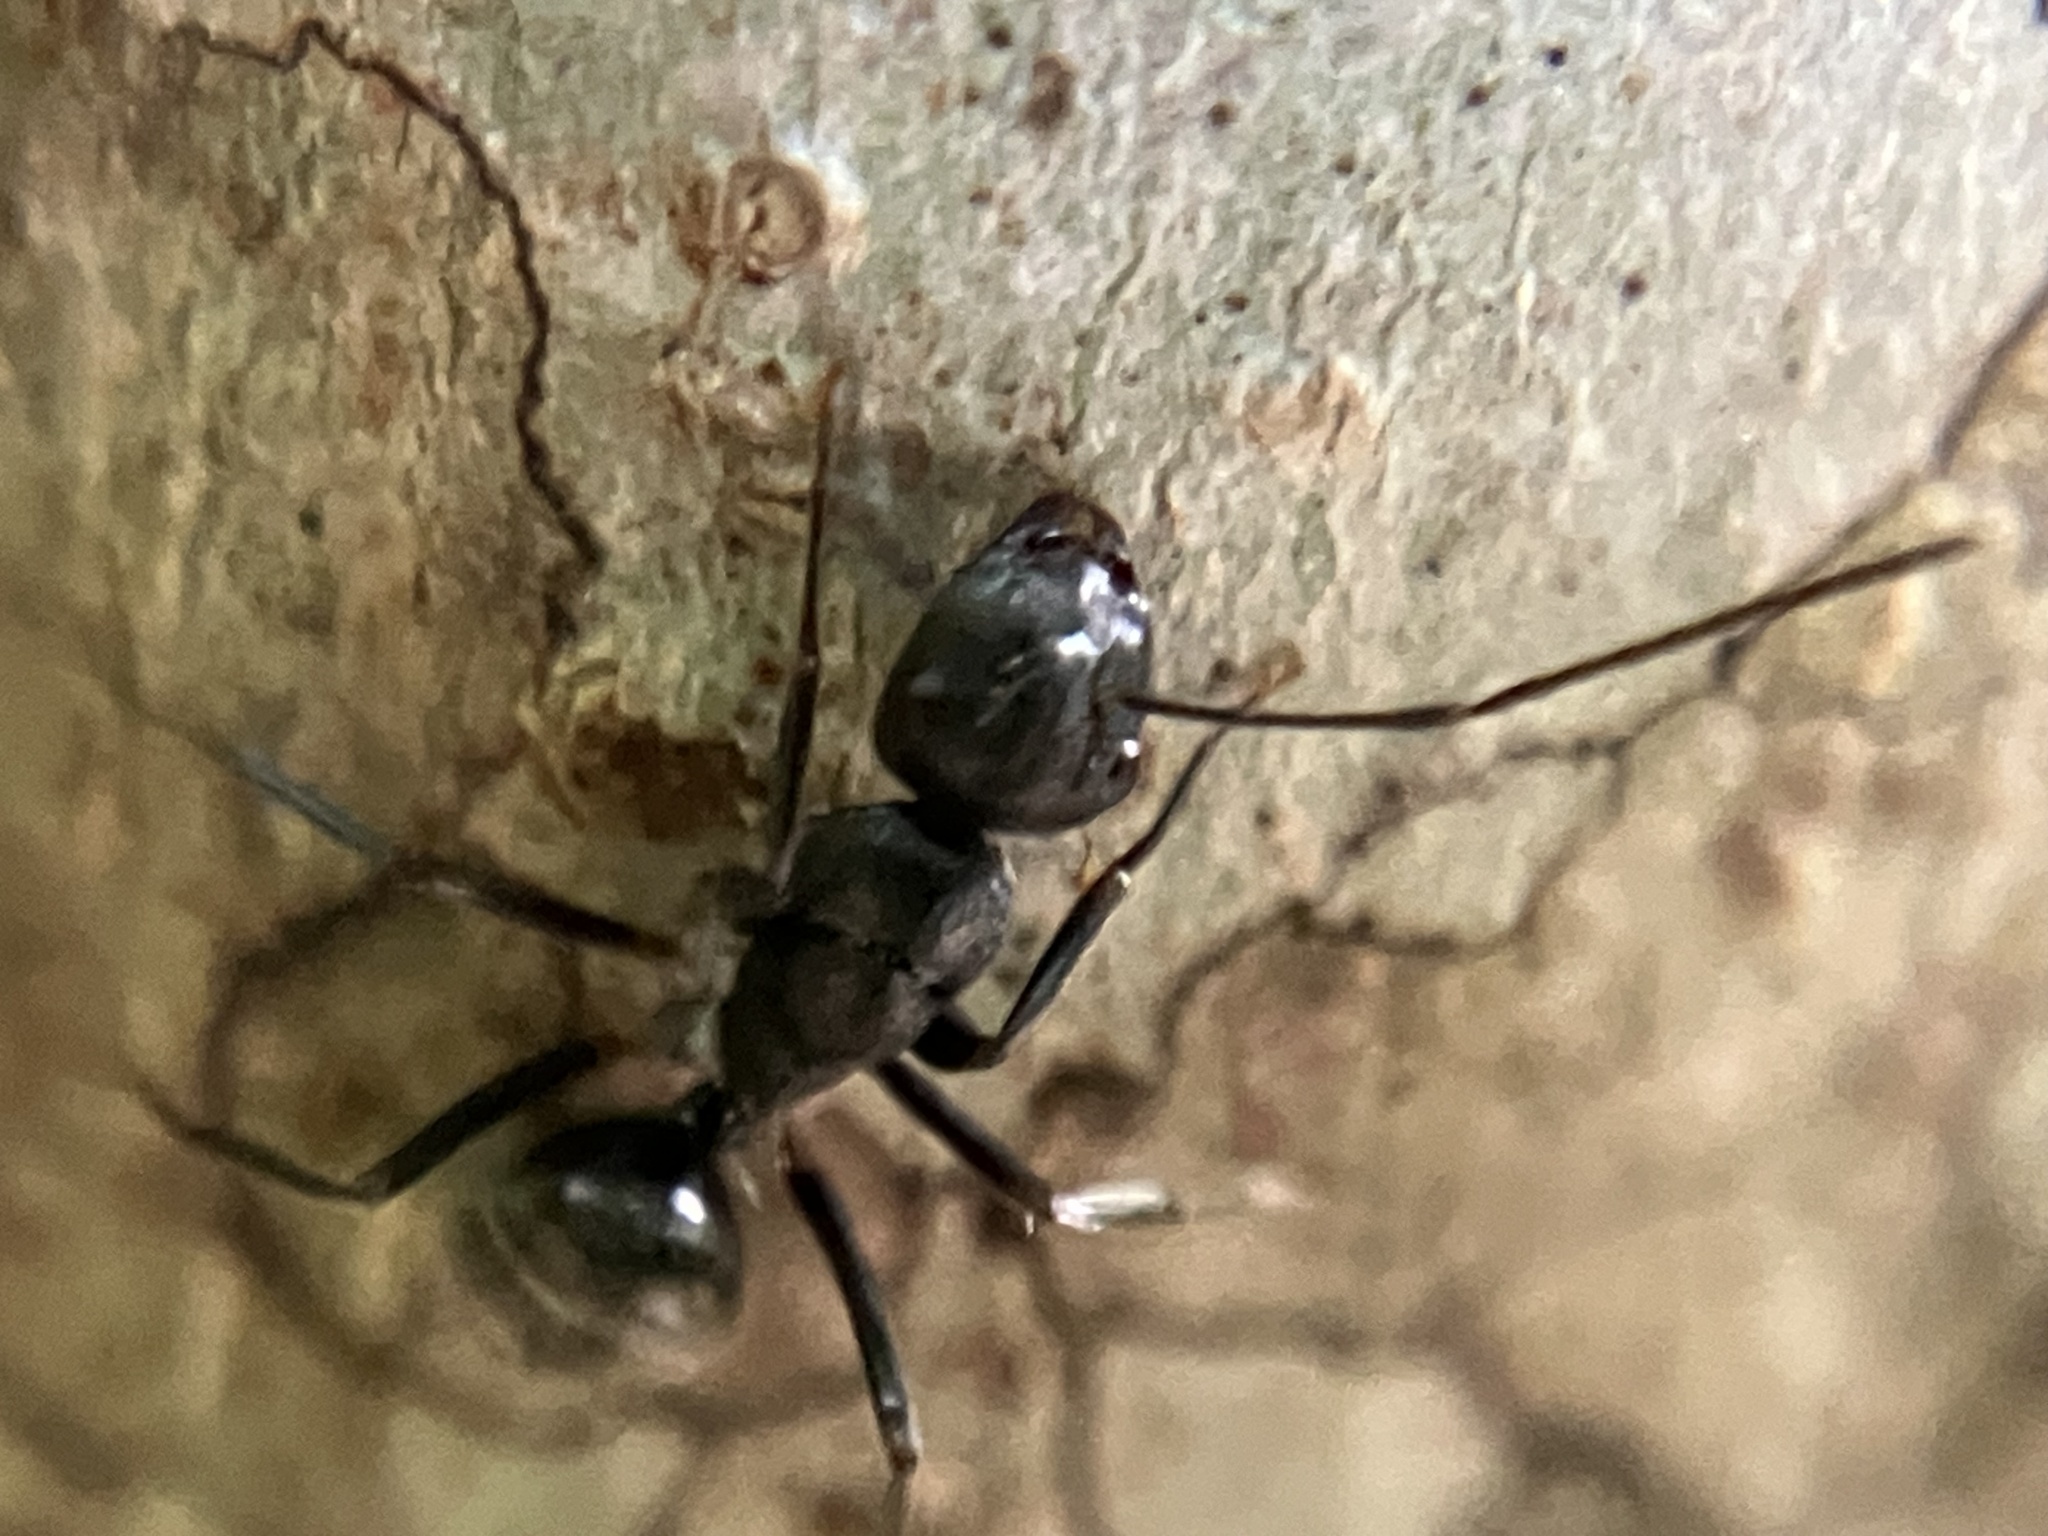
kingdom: Animalia
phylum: Arthropoda
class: Insecta
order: Hymenoptera
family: Formicidae
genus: Camponotus
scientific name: Camponotus confucii
